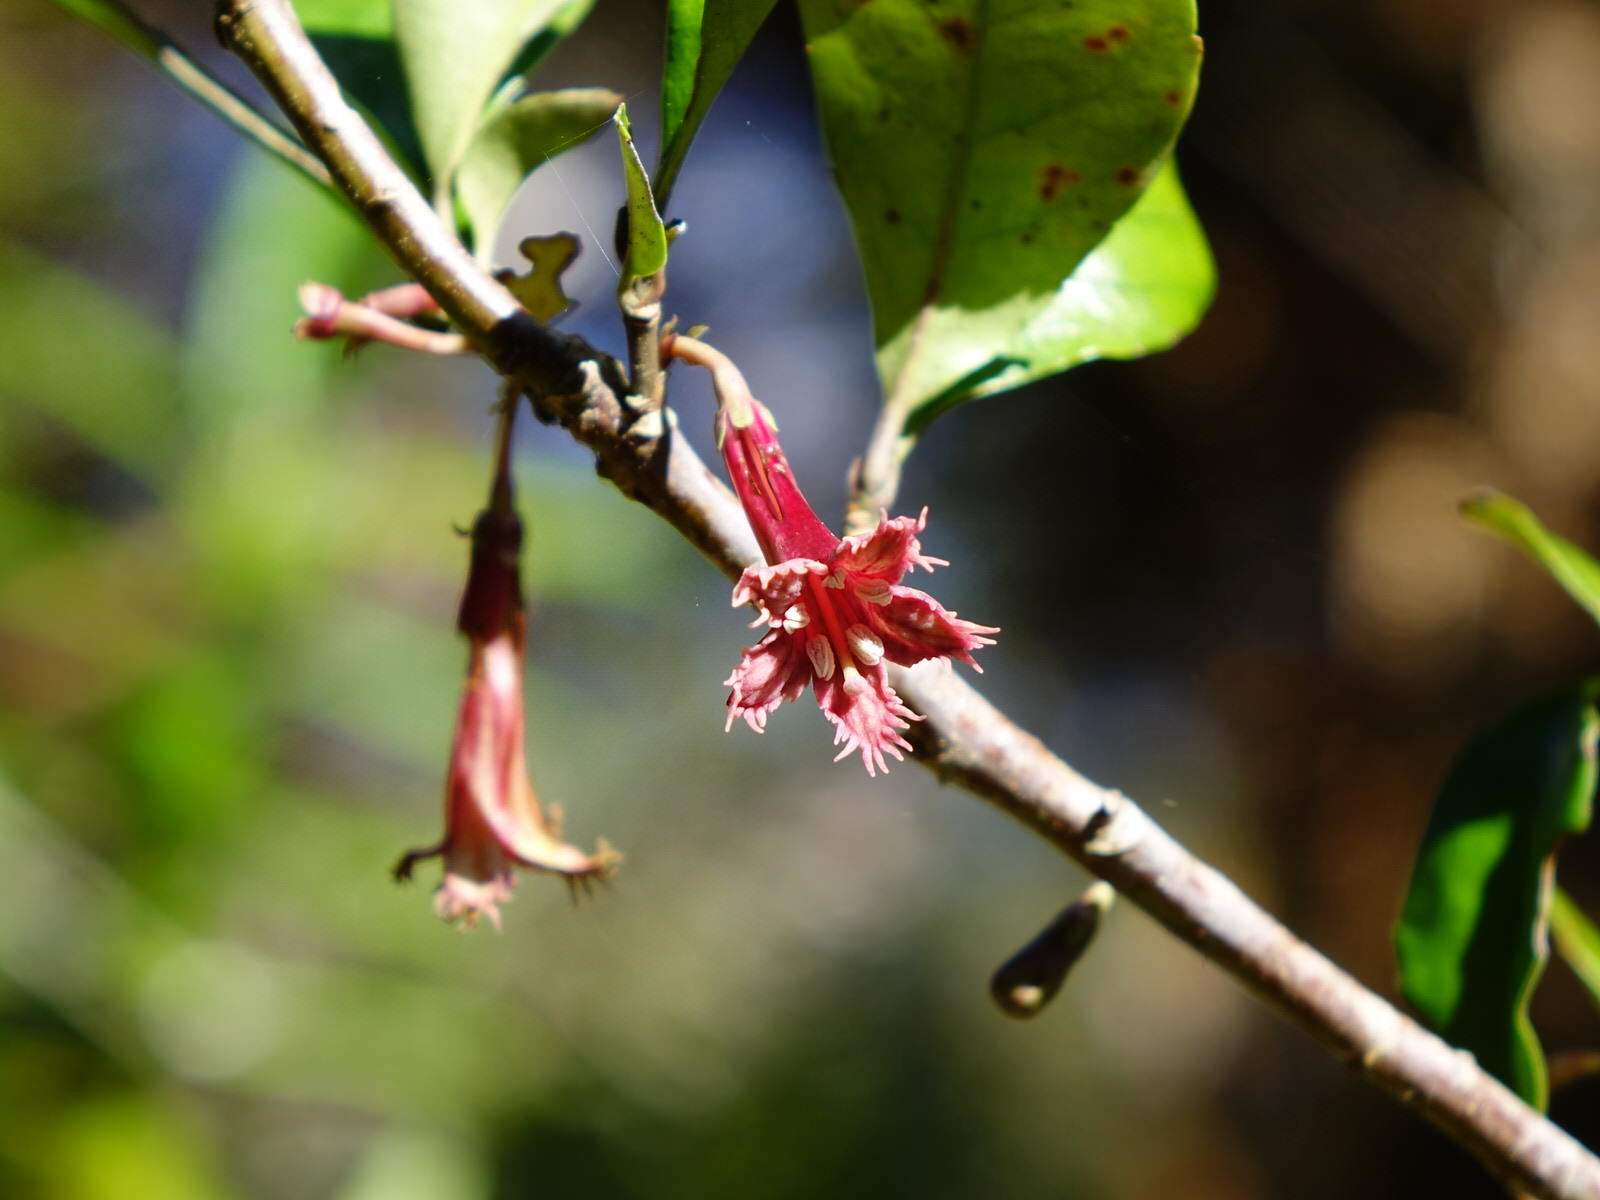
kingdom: Plantae
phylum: Tracheophyta
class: Magnoliopsida
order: Asterales
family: Alseuosmiaceae
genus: Alseuosmia
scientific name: Alseuosmia macrophylla
